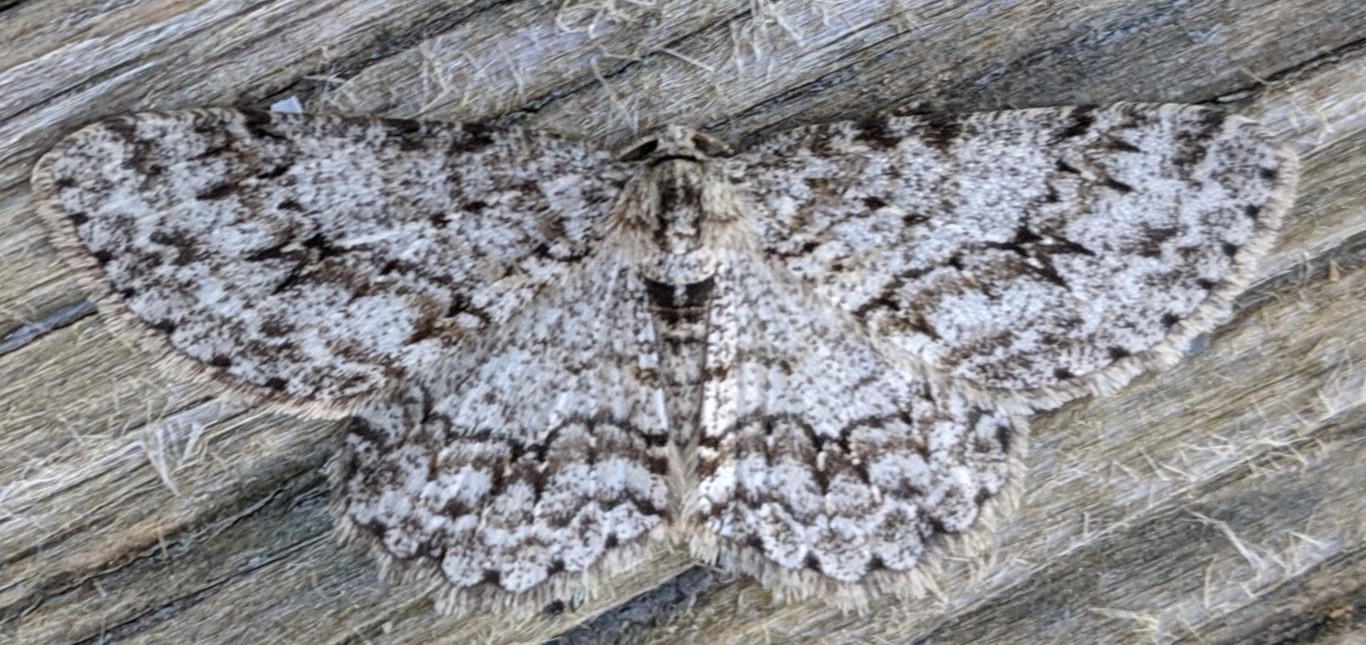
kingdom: Animalia
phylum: Arthropoda
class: Insecta
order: Lepidoptera
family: Geometridae
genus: Ectropis
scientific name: Ectropis crepuscularia
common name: Engrailed
